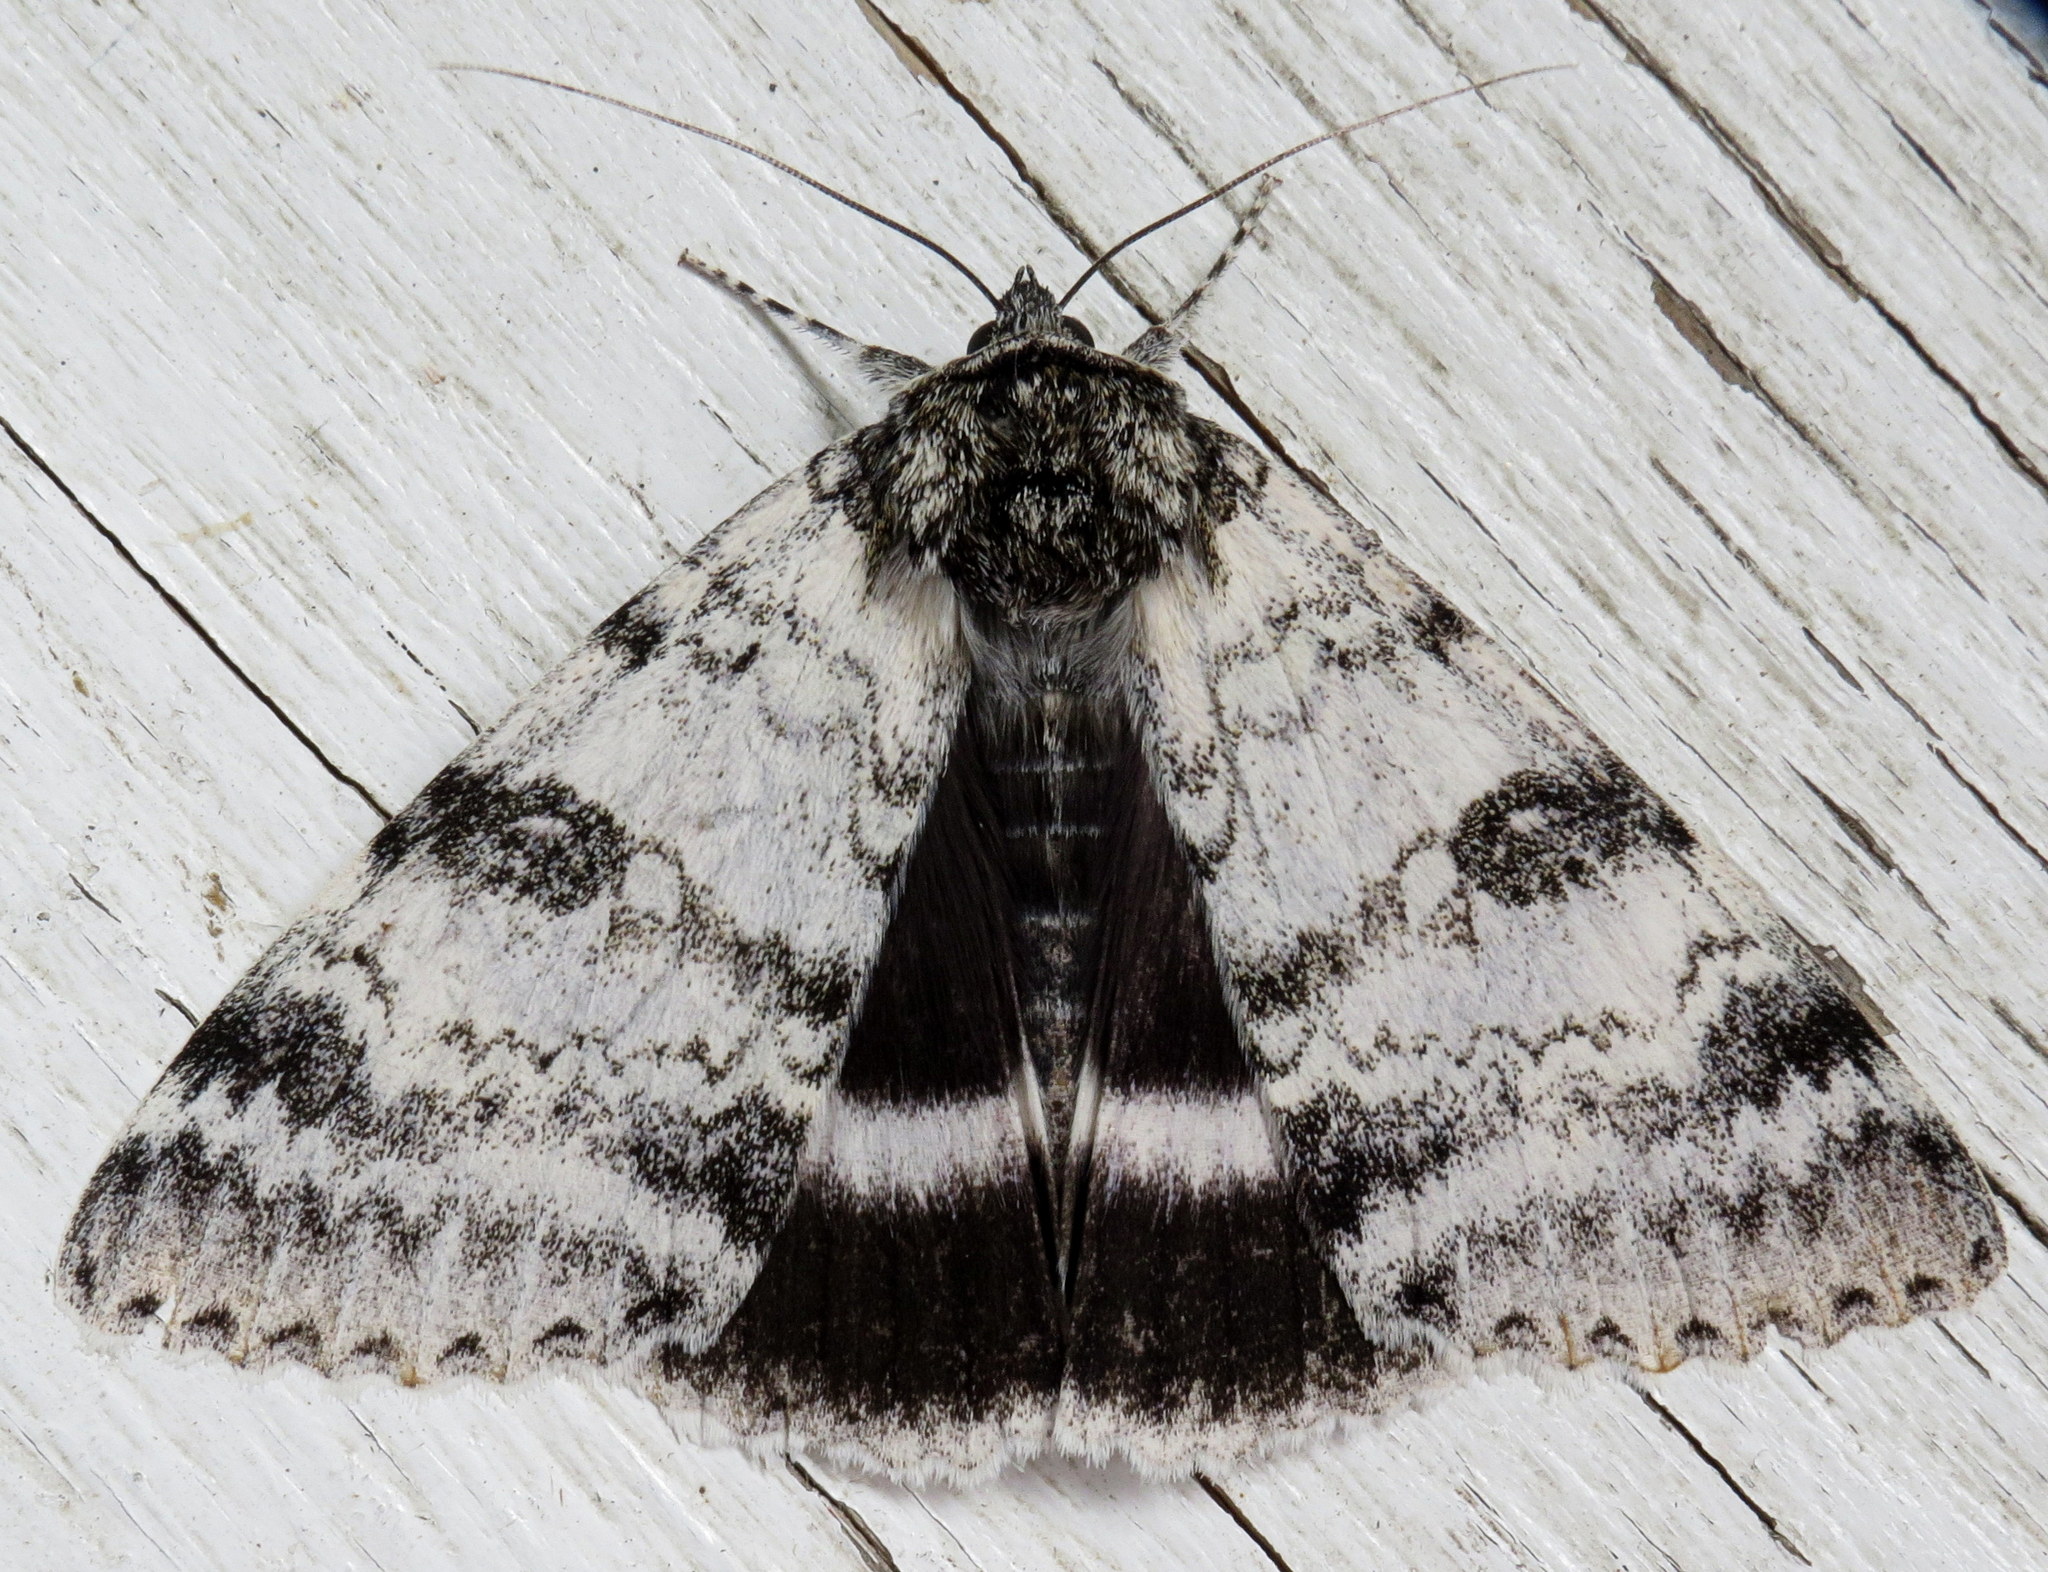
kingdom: Animalia
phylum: Arthropoda
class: Insecta
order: Lepidoptera
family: Erebidae
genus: Catocala
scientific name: Catocala relicta
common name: White underwing
